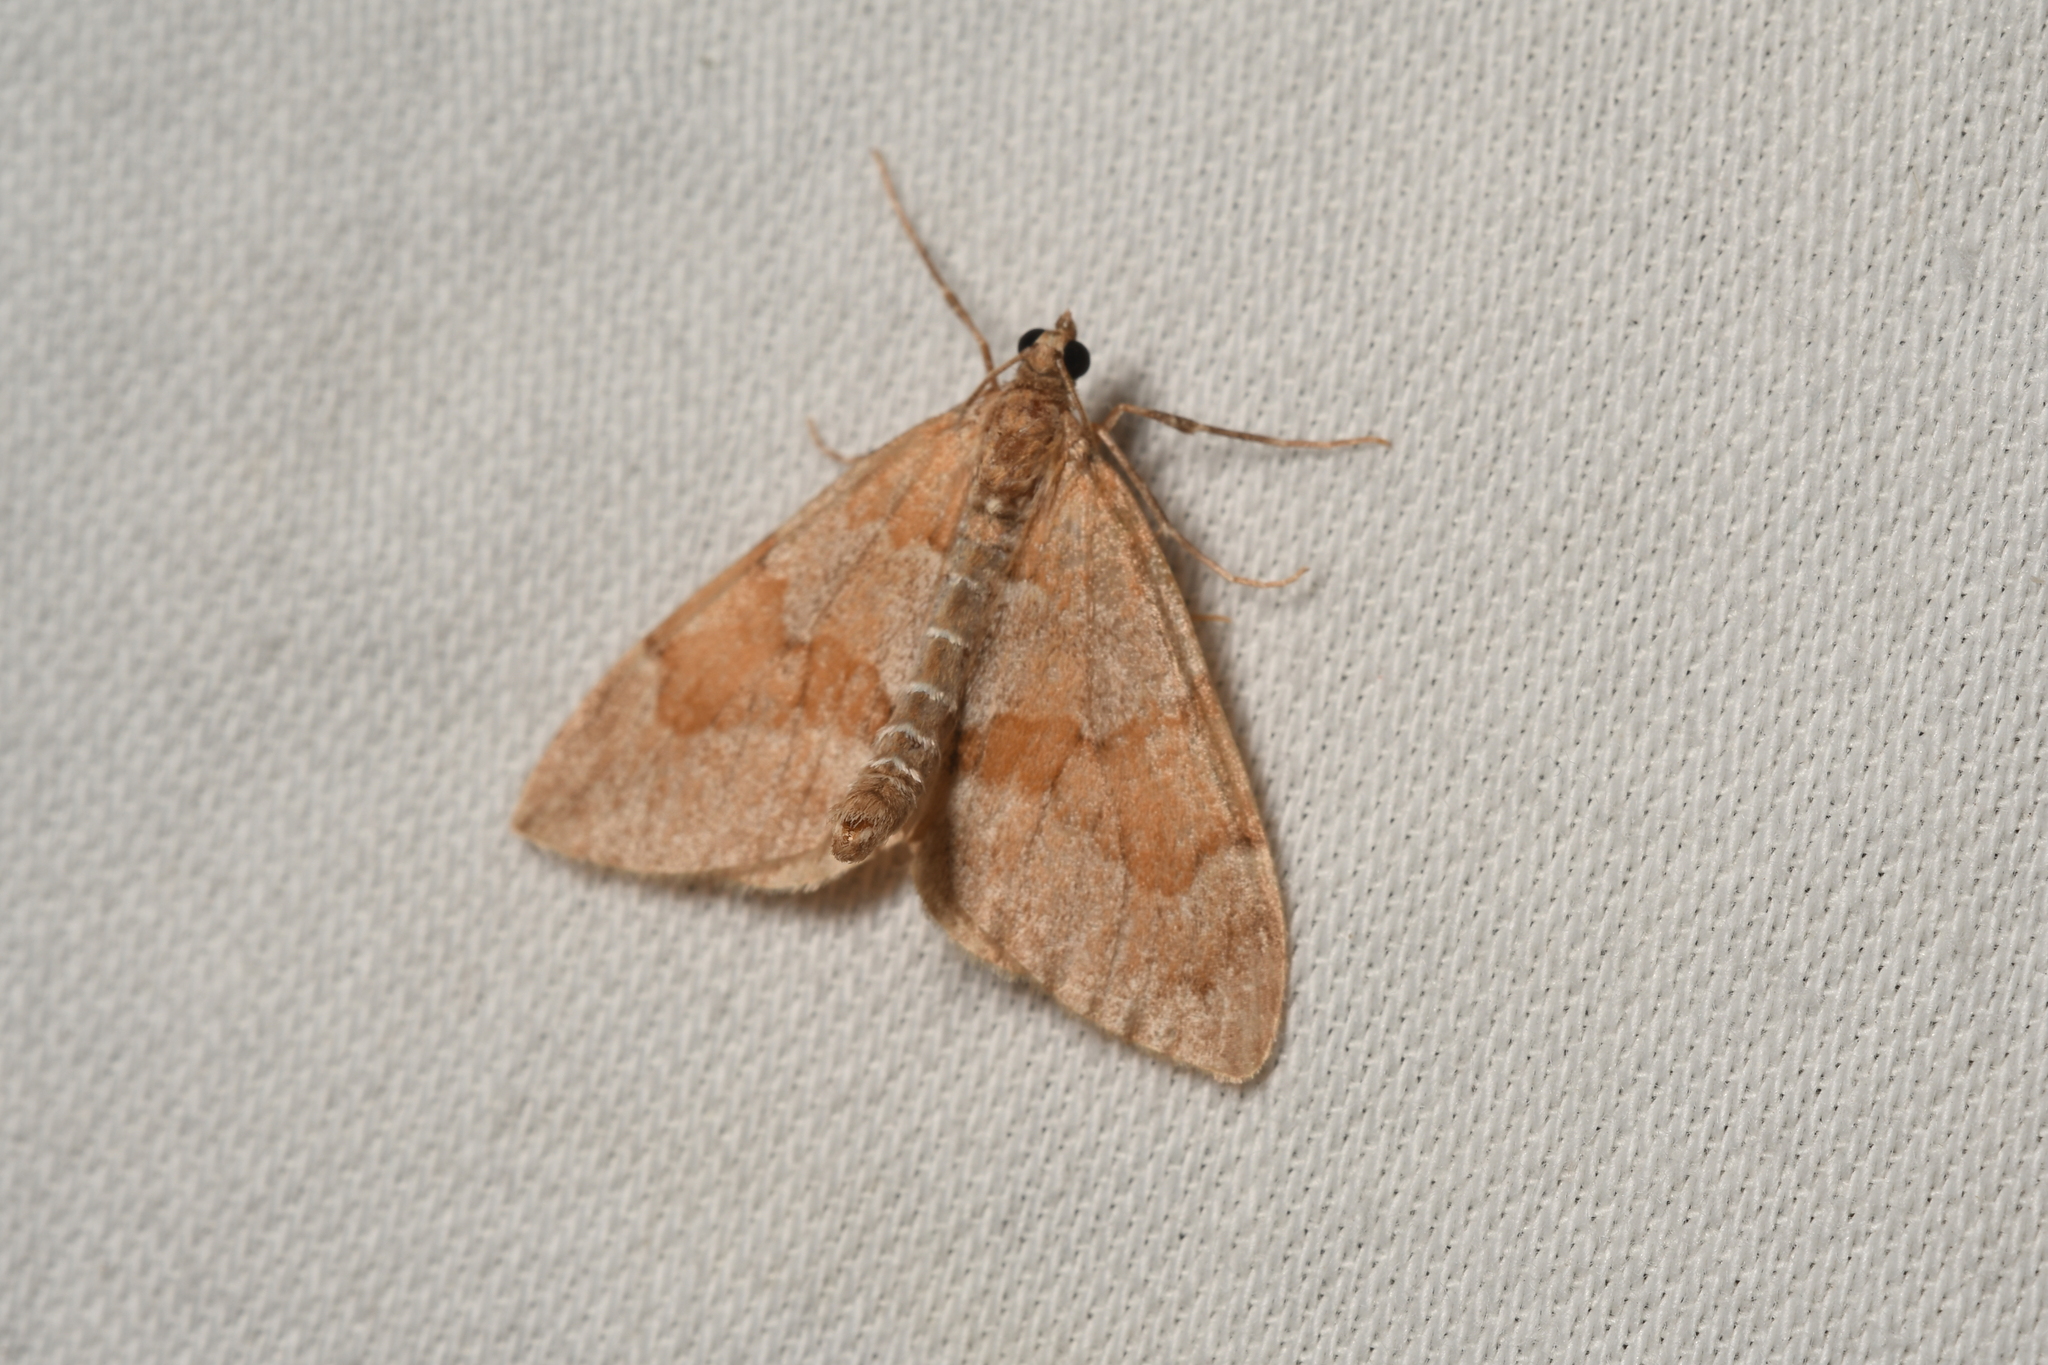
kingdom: Animalia
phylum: Arthropoda
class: Insecta
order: Lepidoptera
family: Geometridae
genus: Thera
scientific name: Thera obeliscata
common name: Grey pine carpet
